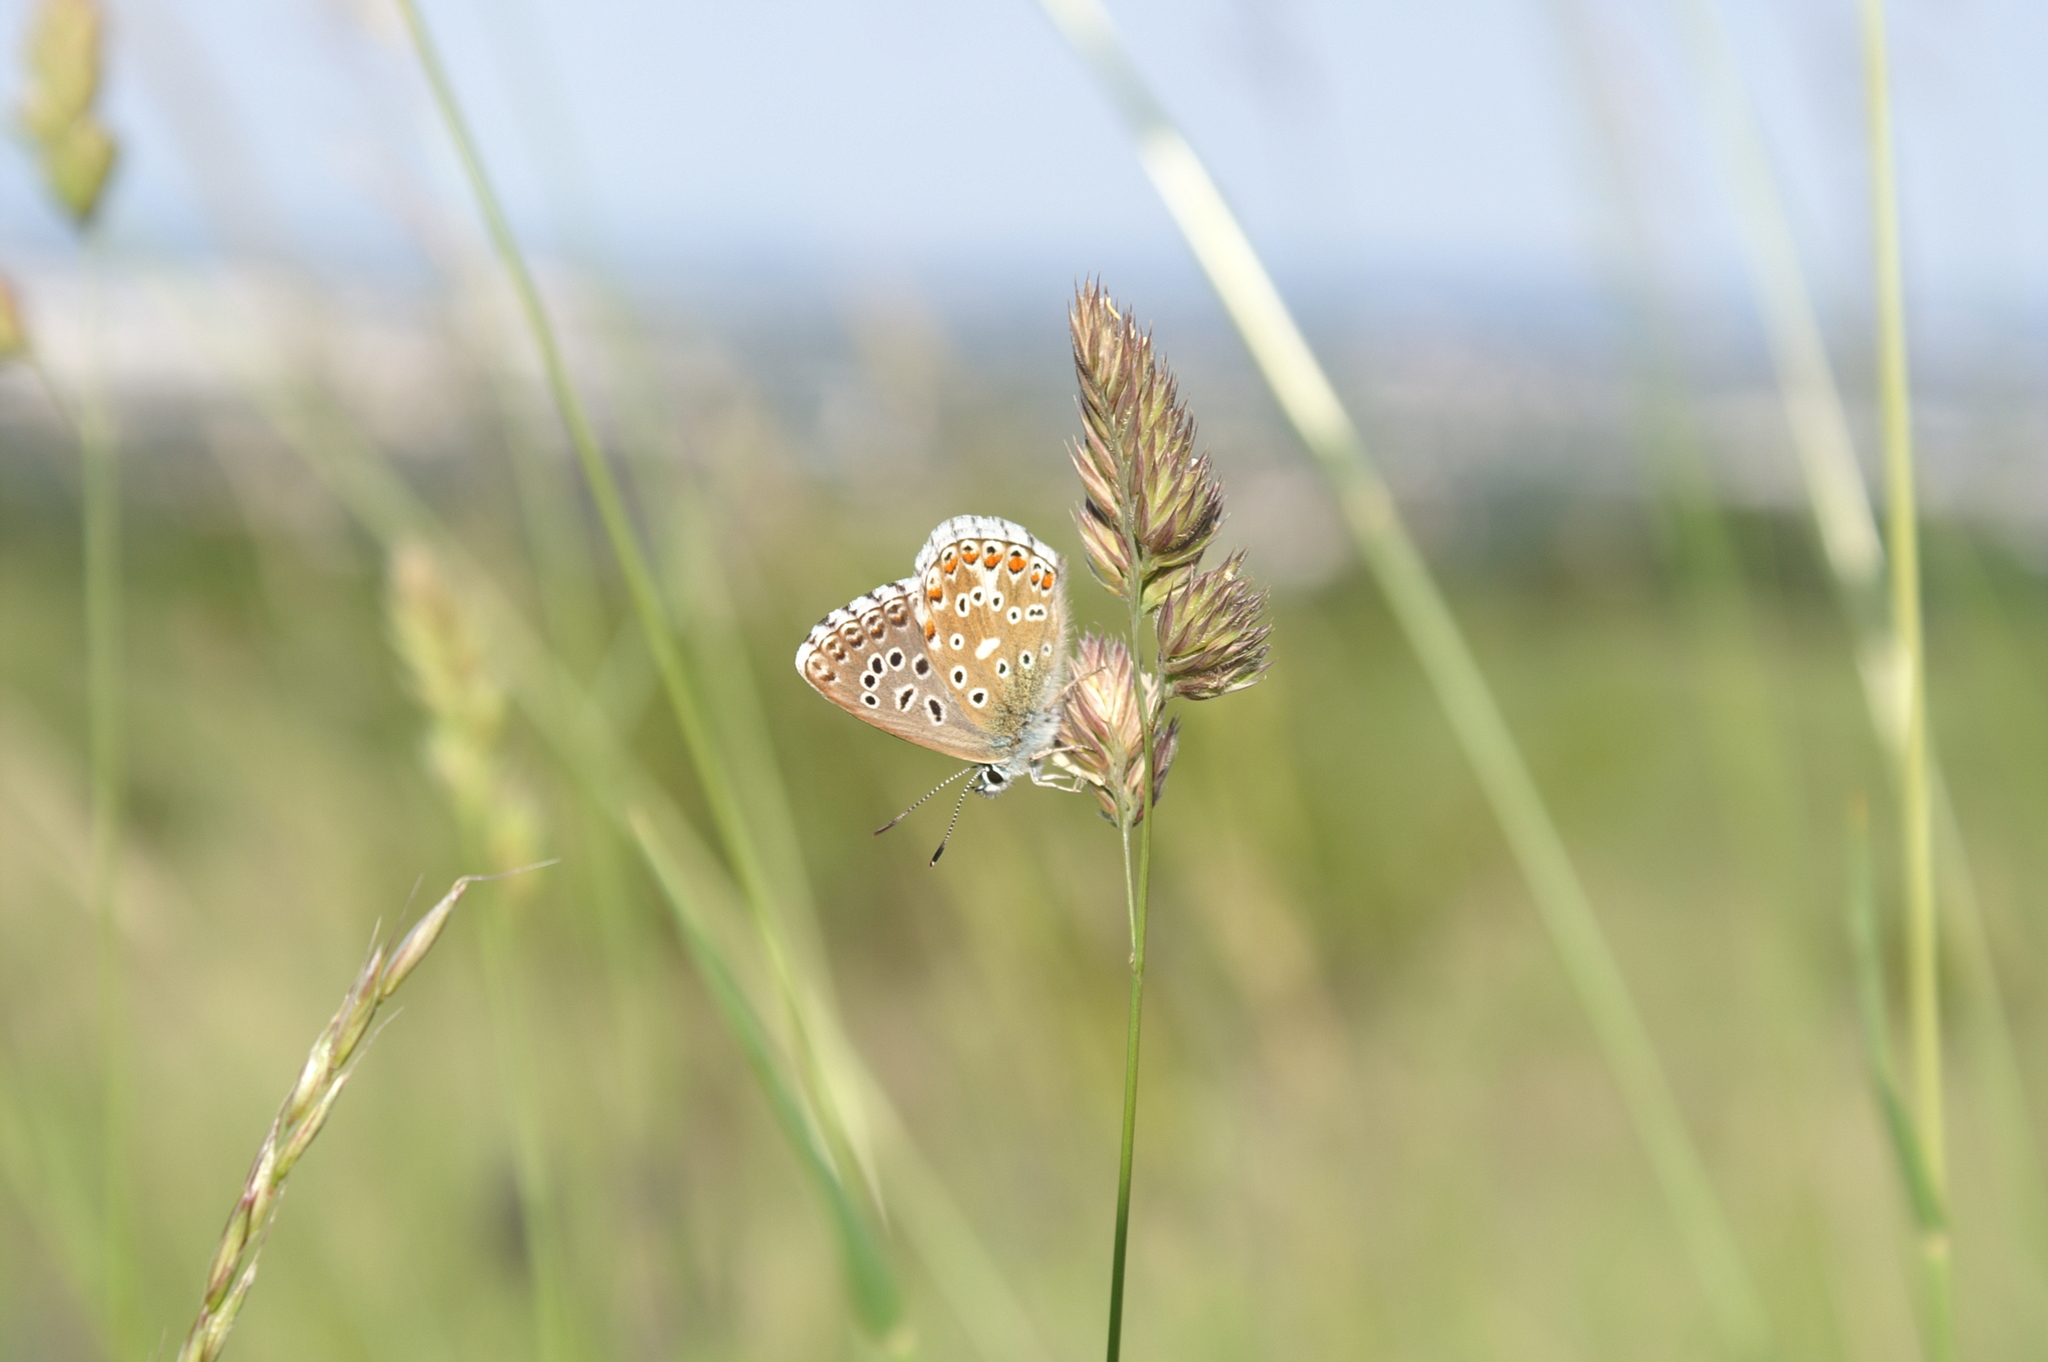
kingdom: Animalia
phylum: Arthropoda
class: Insecta
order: Lepidoptera
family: Lycaenidae
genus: Lysandra
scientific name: Lysandra bellargus
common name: Adonis blue
